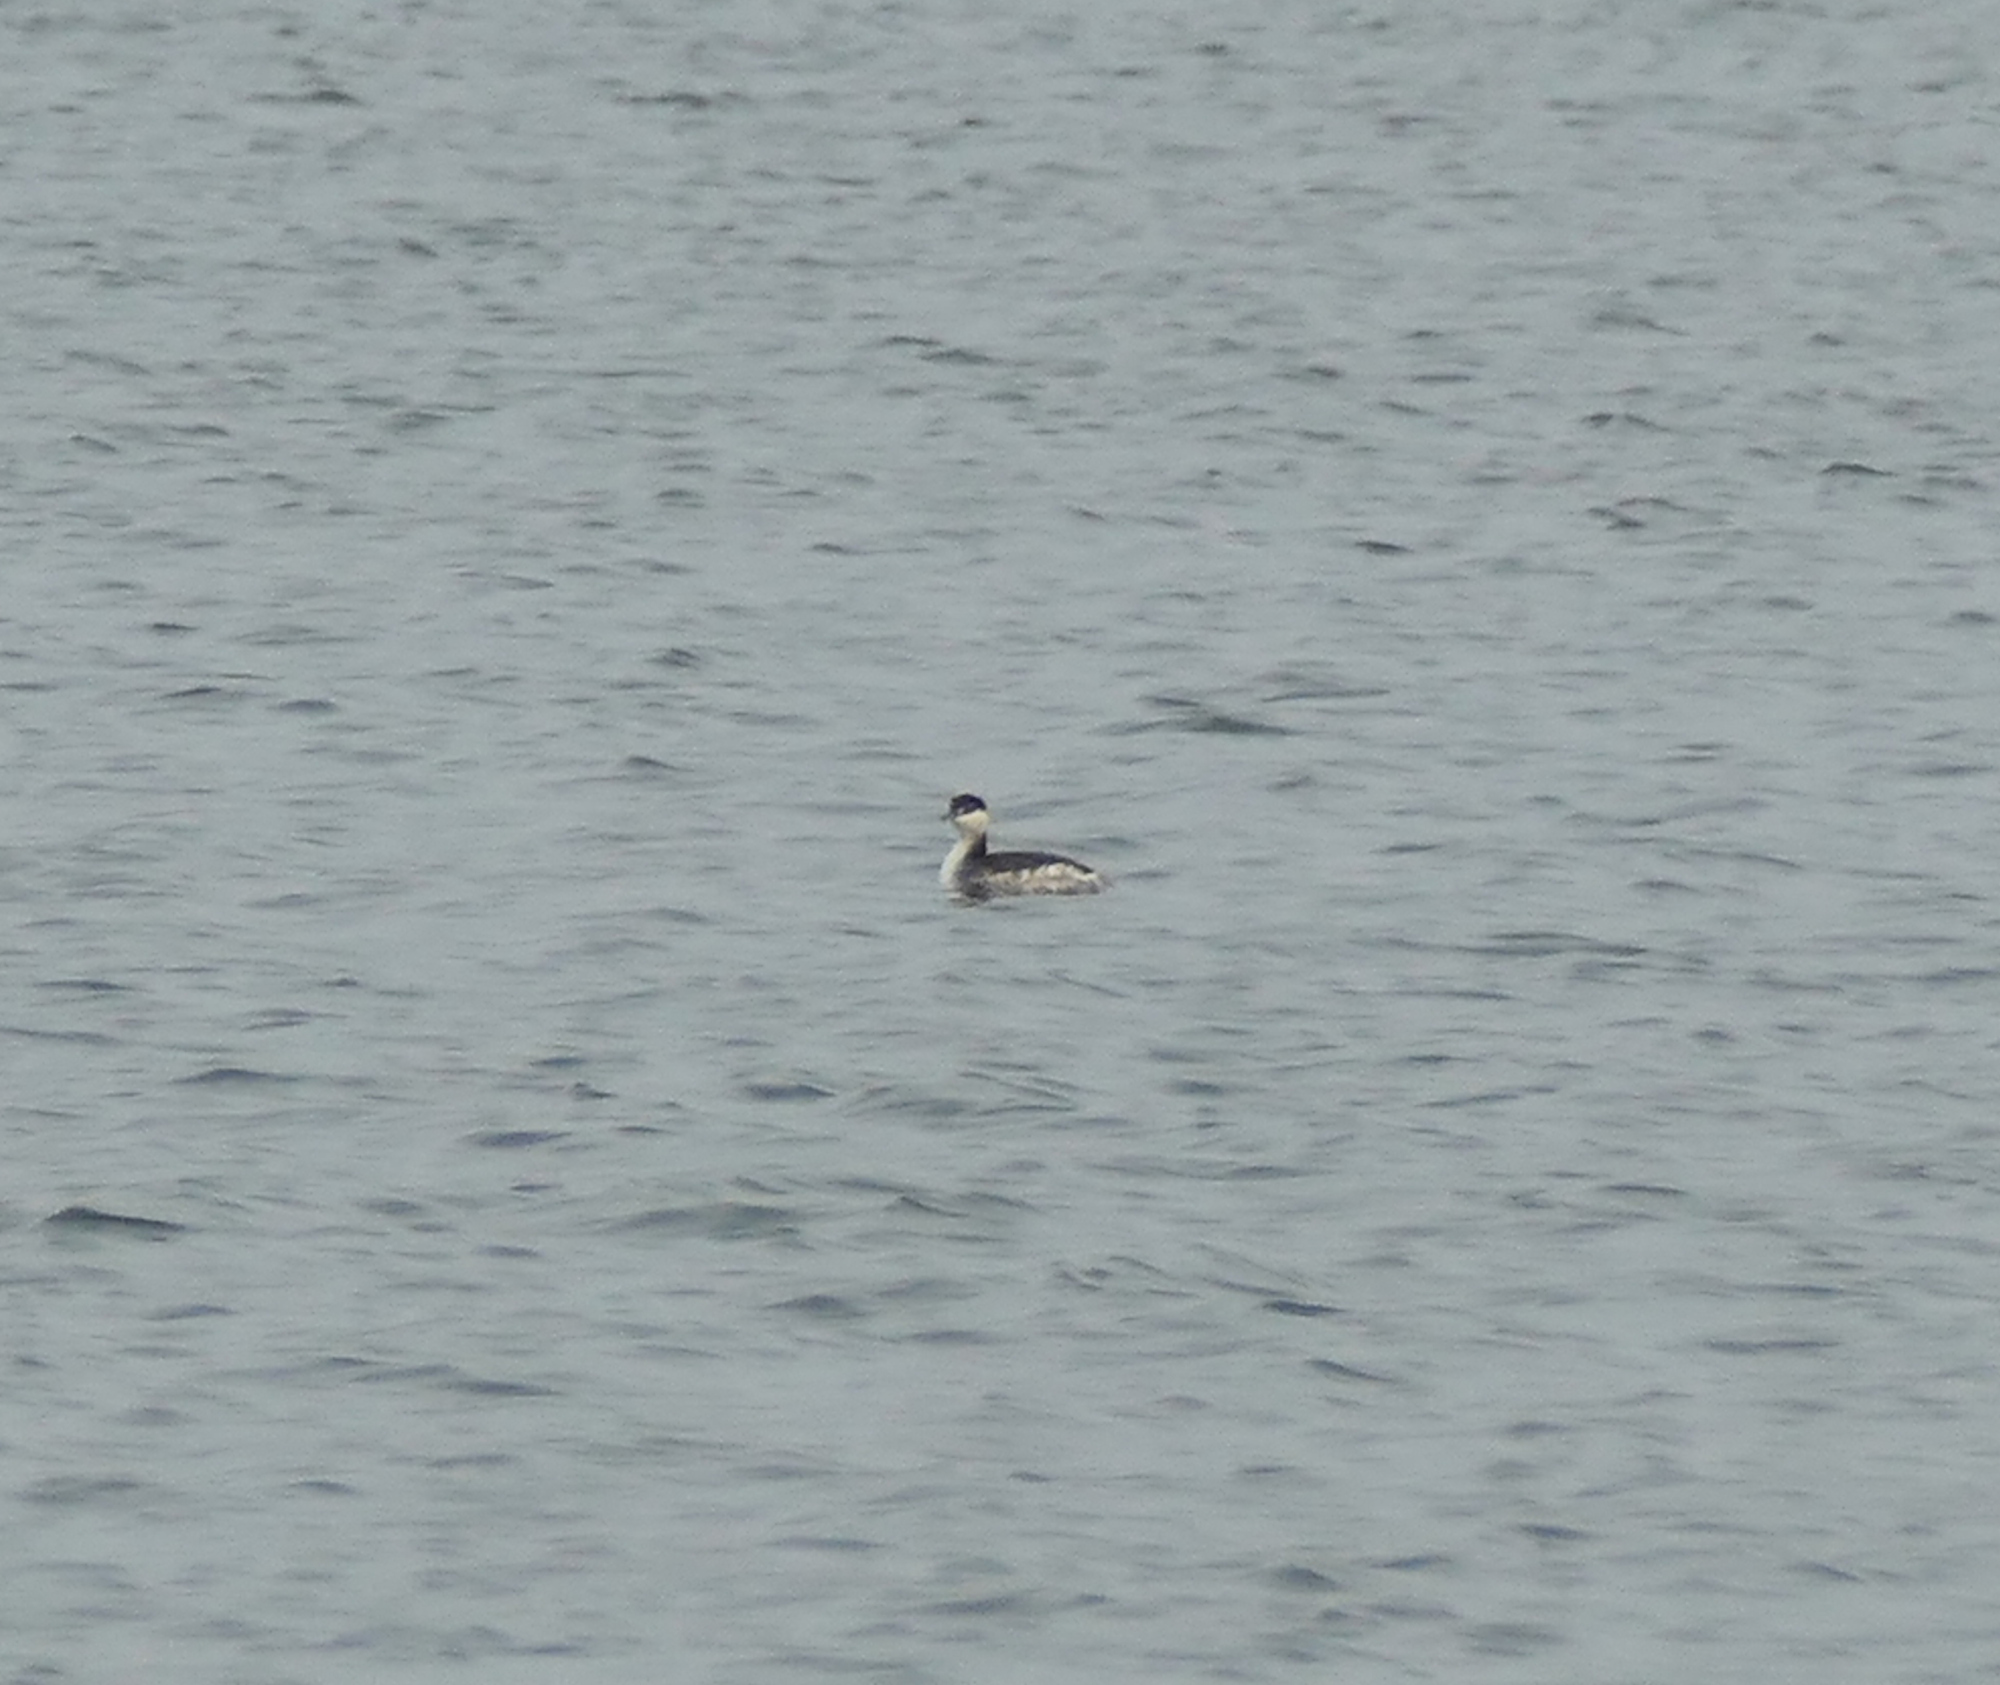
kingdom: Animalia
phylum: Chordata
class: Aves
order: Podicipediformes
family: Podicipedidae
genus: Podiceps
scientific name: Podiceps auritus
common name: Horned grebe
